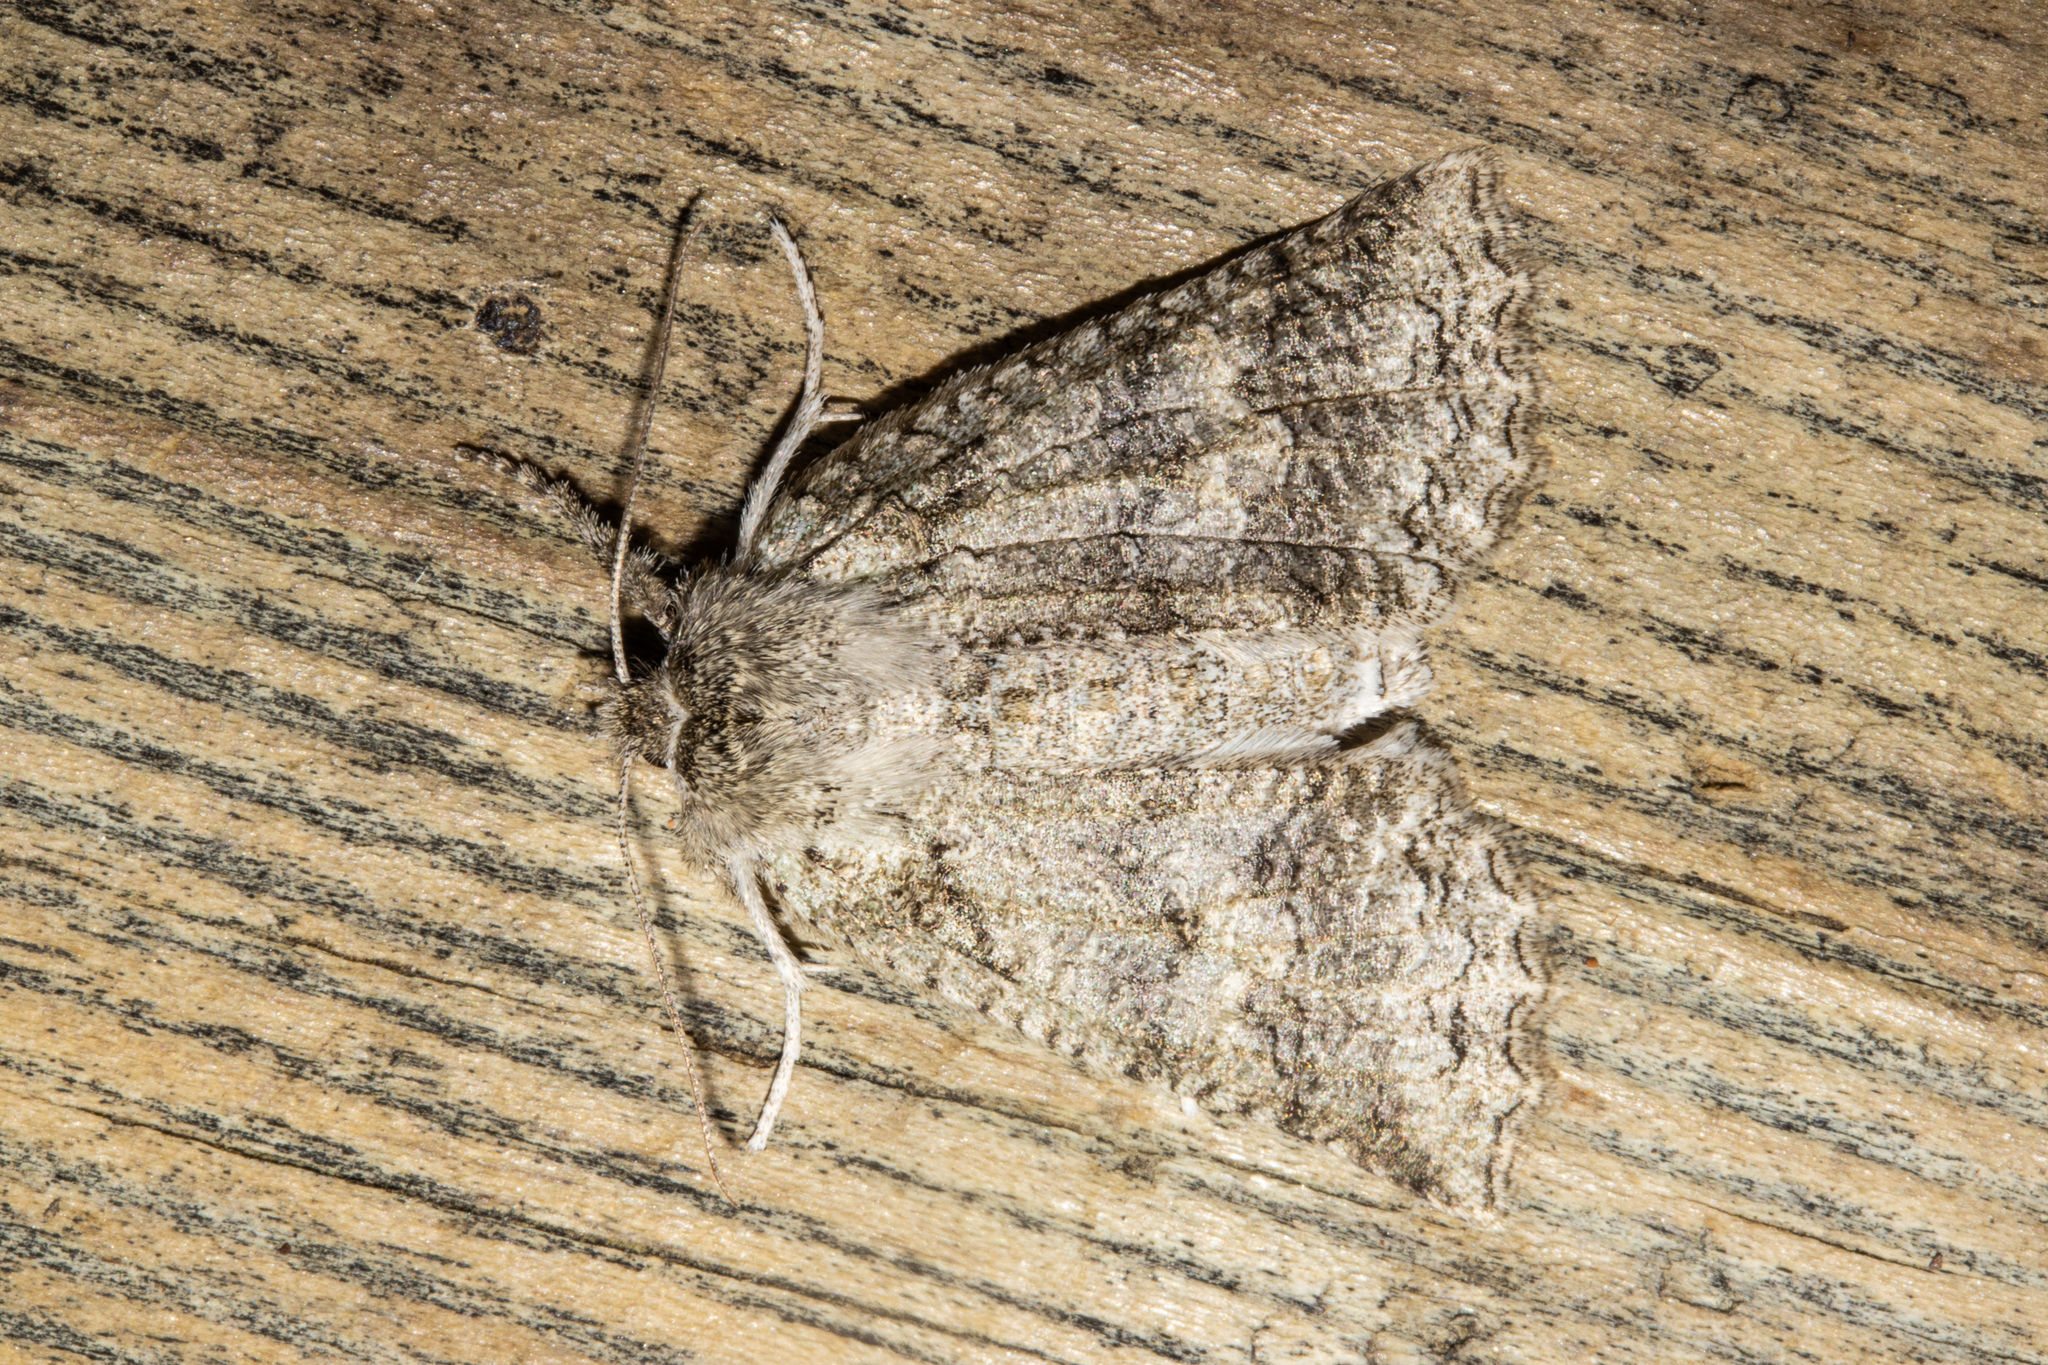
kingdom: Animalia
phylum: Arthropoda
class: Insecta
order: Lepidoptera
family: Geometridae
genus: Declana
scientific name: Declana floccosa
